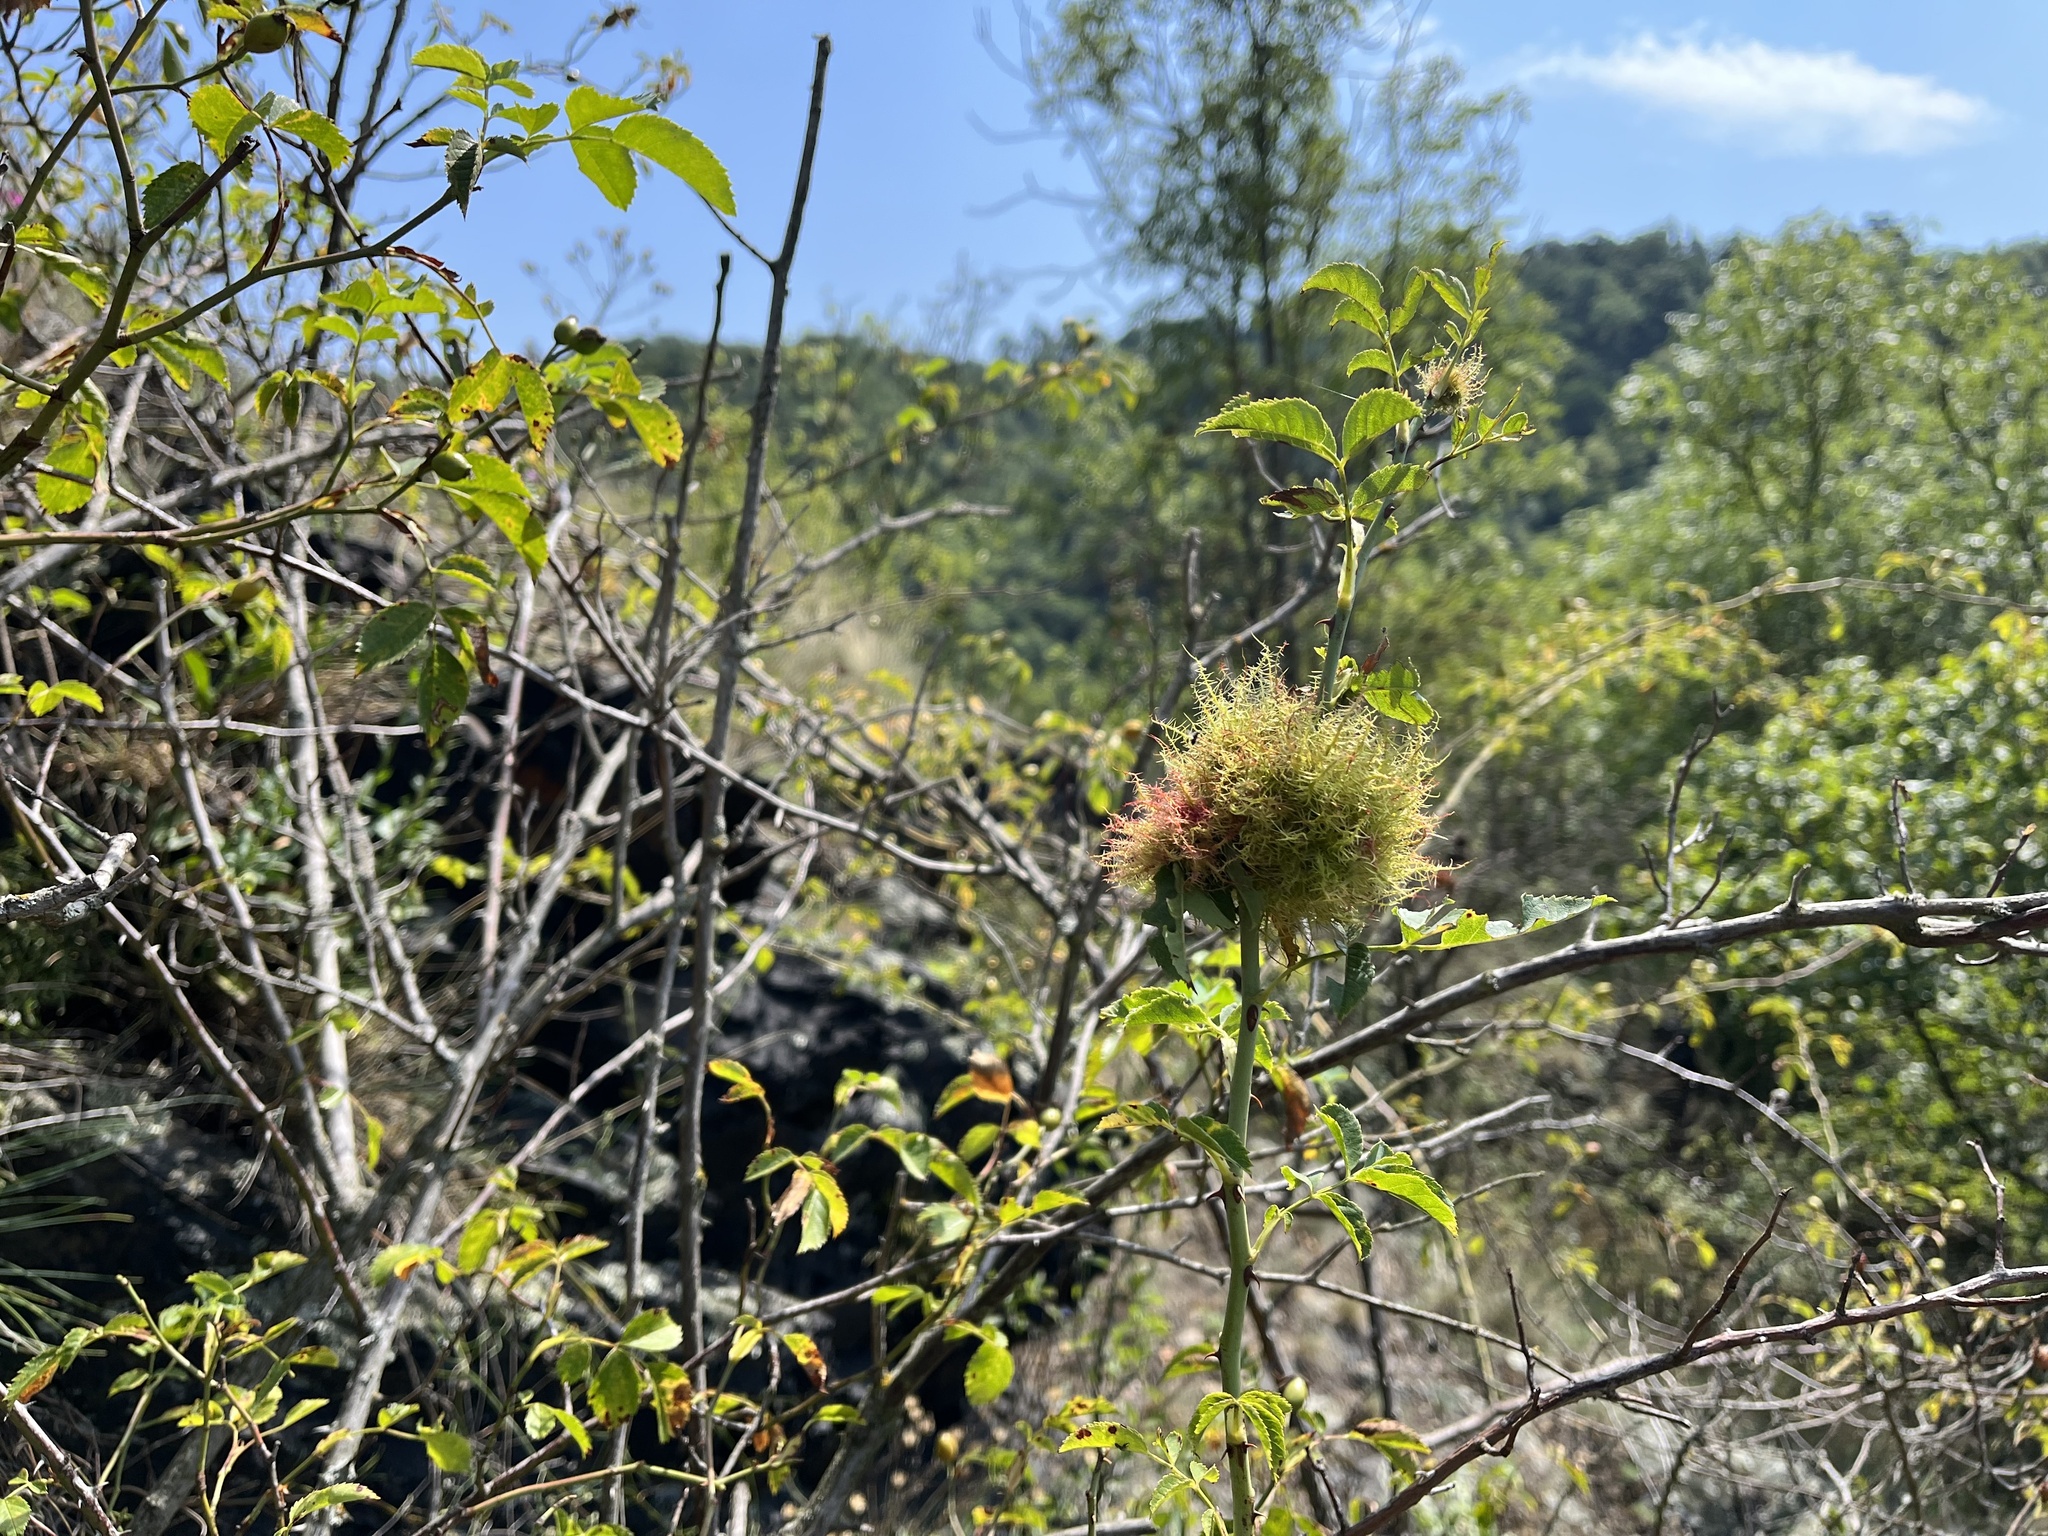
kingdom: Animalia
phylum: Arthropoda
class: Insecta
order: Hymenoptera
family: Cynipidae
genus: Diplolepis
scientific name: Diplolepis rosae
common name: Bedeguar gall
